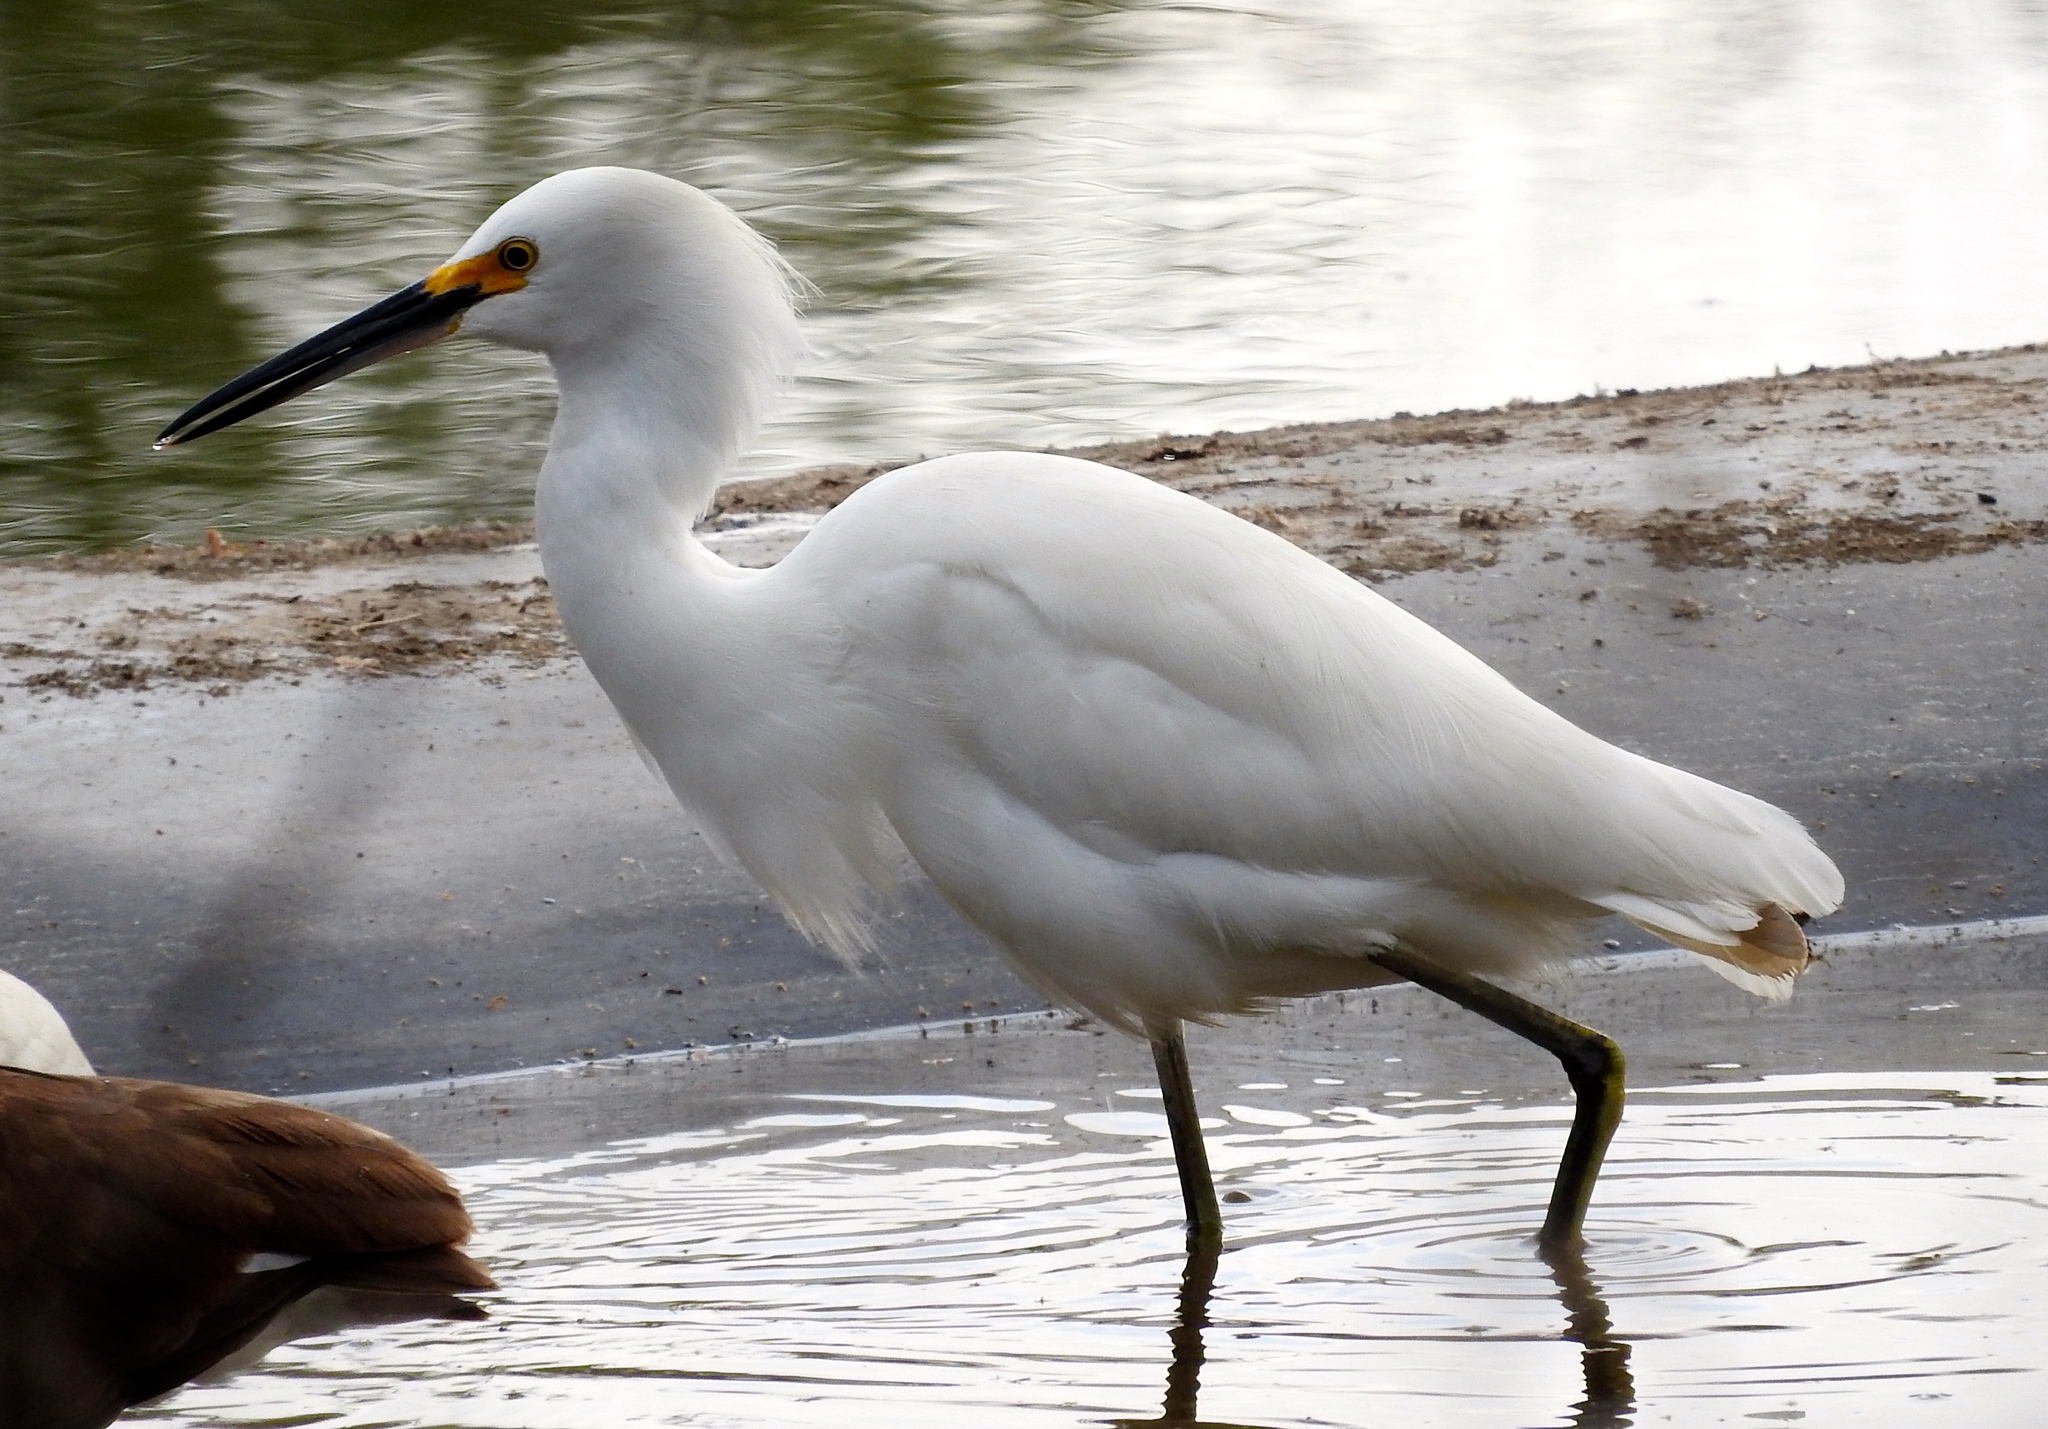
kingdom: Animalia
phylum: Chordata
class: Aves
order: Pelecaniformes
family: Ardeidae
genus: Egretta
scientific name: Egretta thula
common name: Snowy egret
